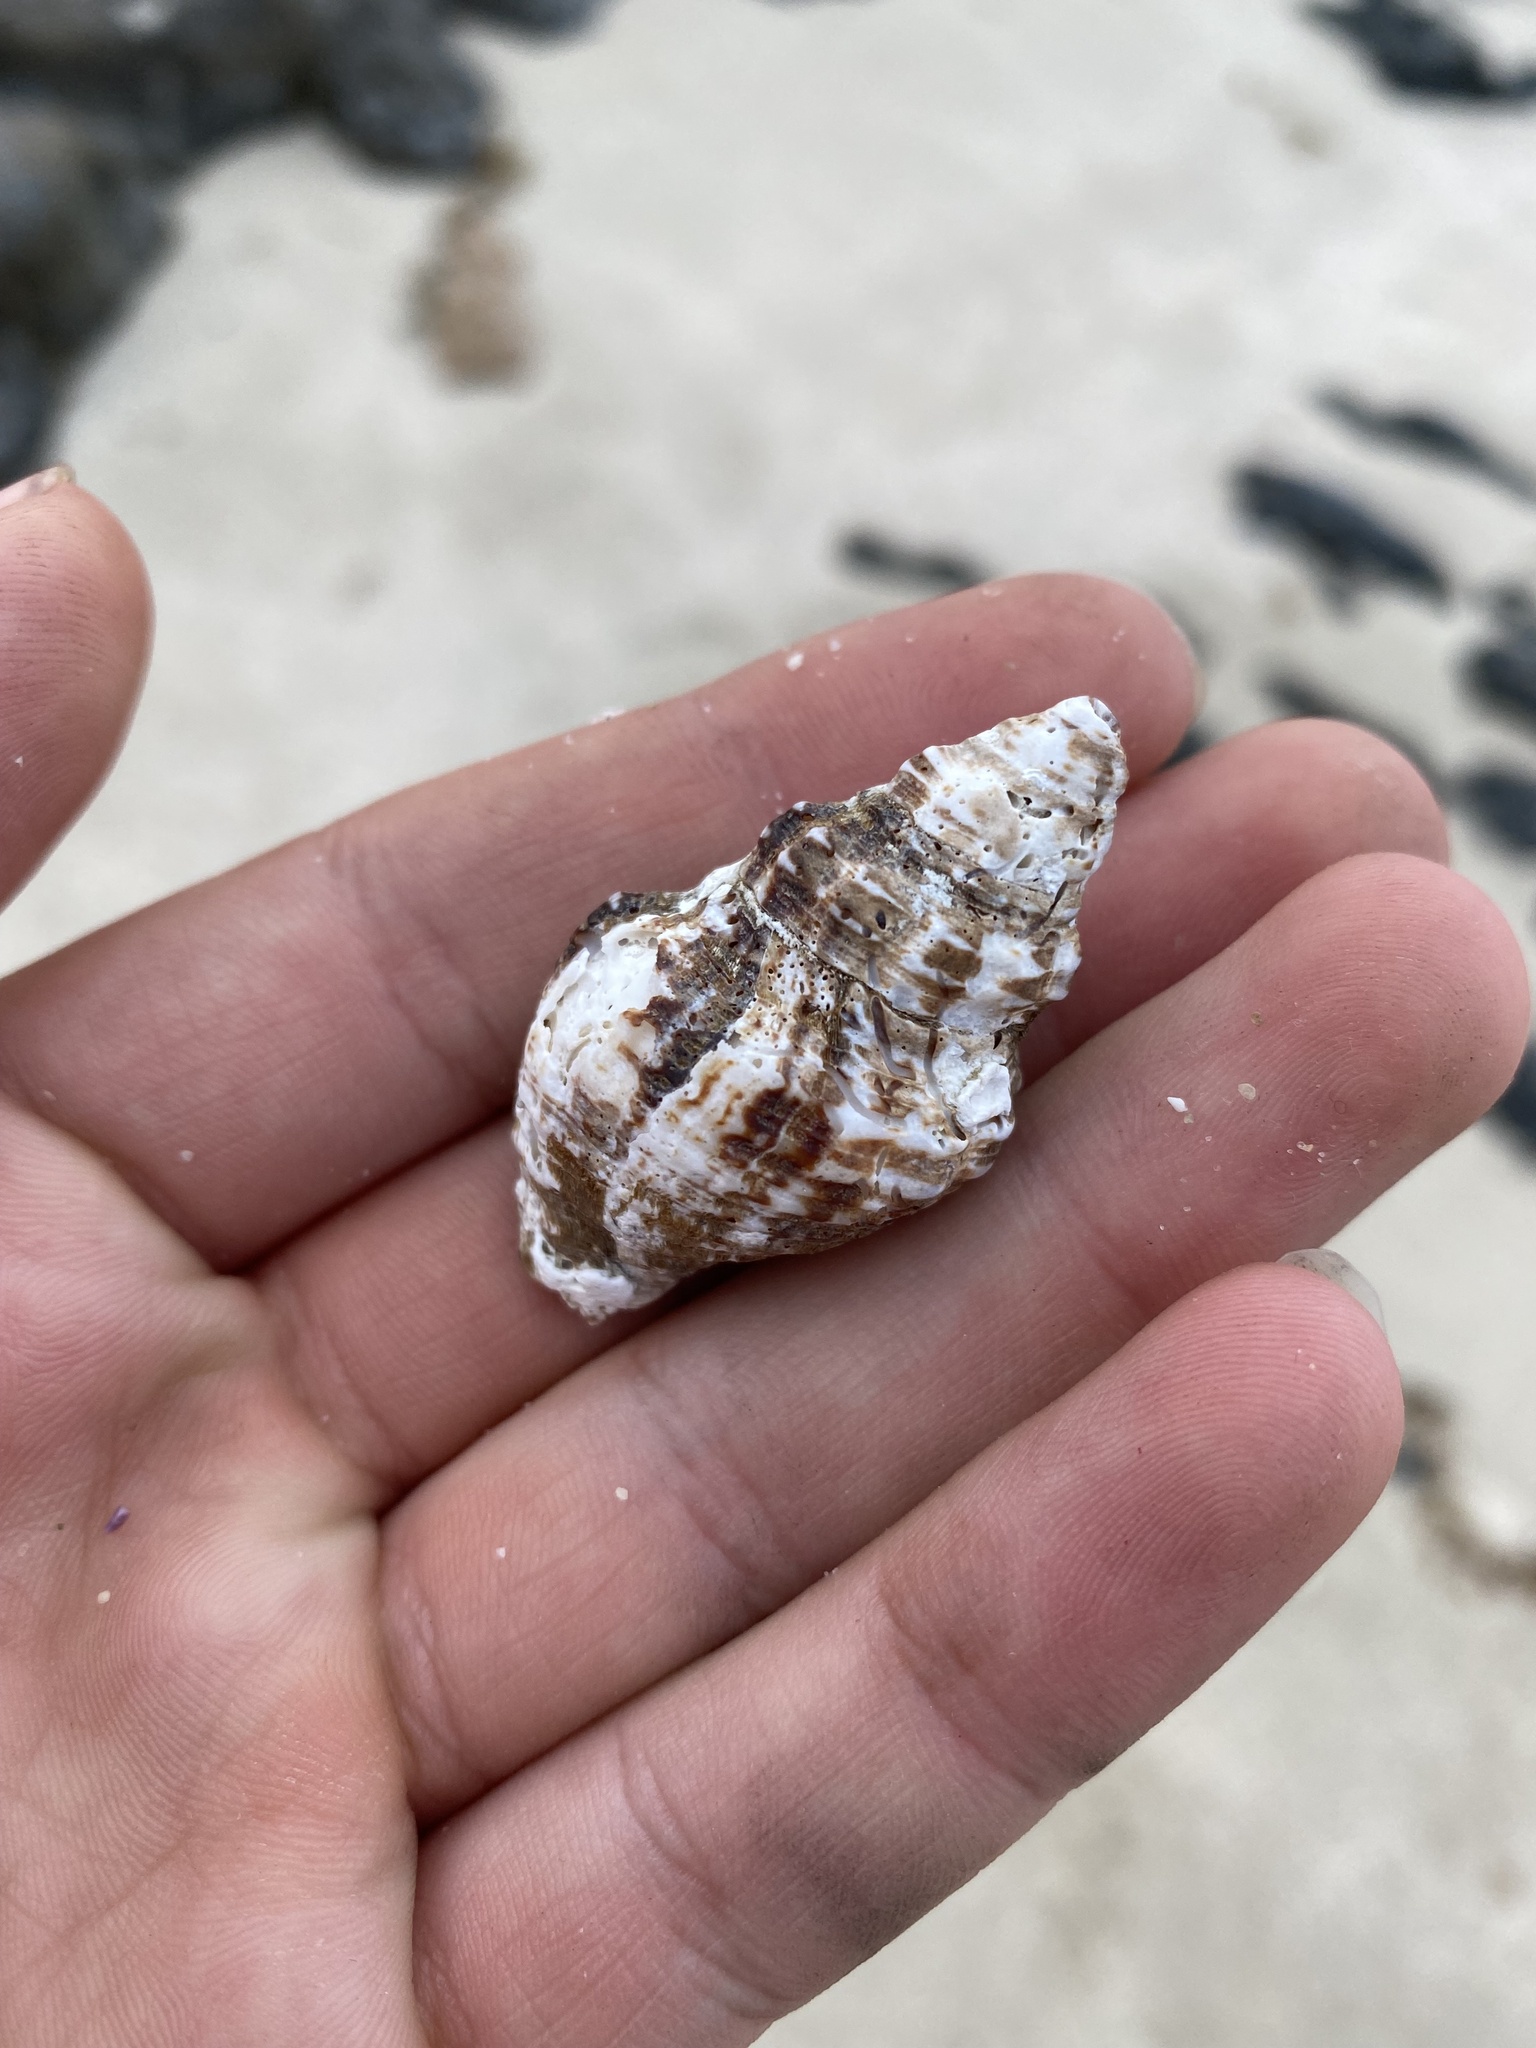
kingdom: Animalia
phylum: Mollusca
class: Gastropoda
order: Neogastropoda
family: Pisaniidae
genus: Pusio
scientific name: Pusio elegans
